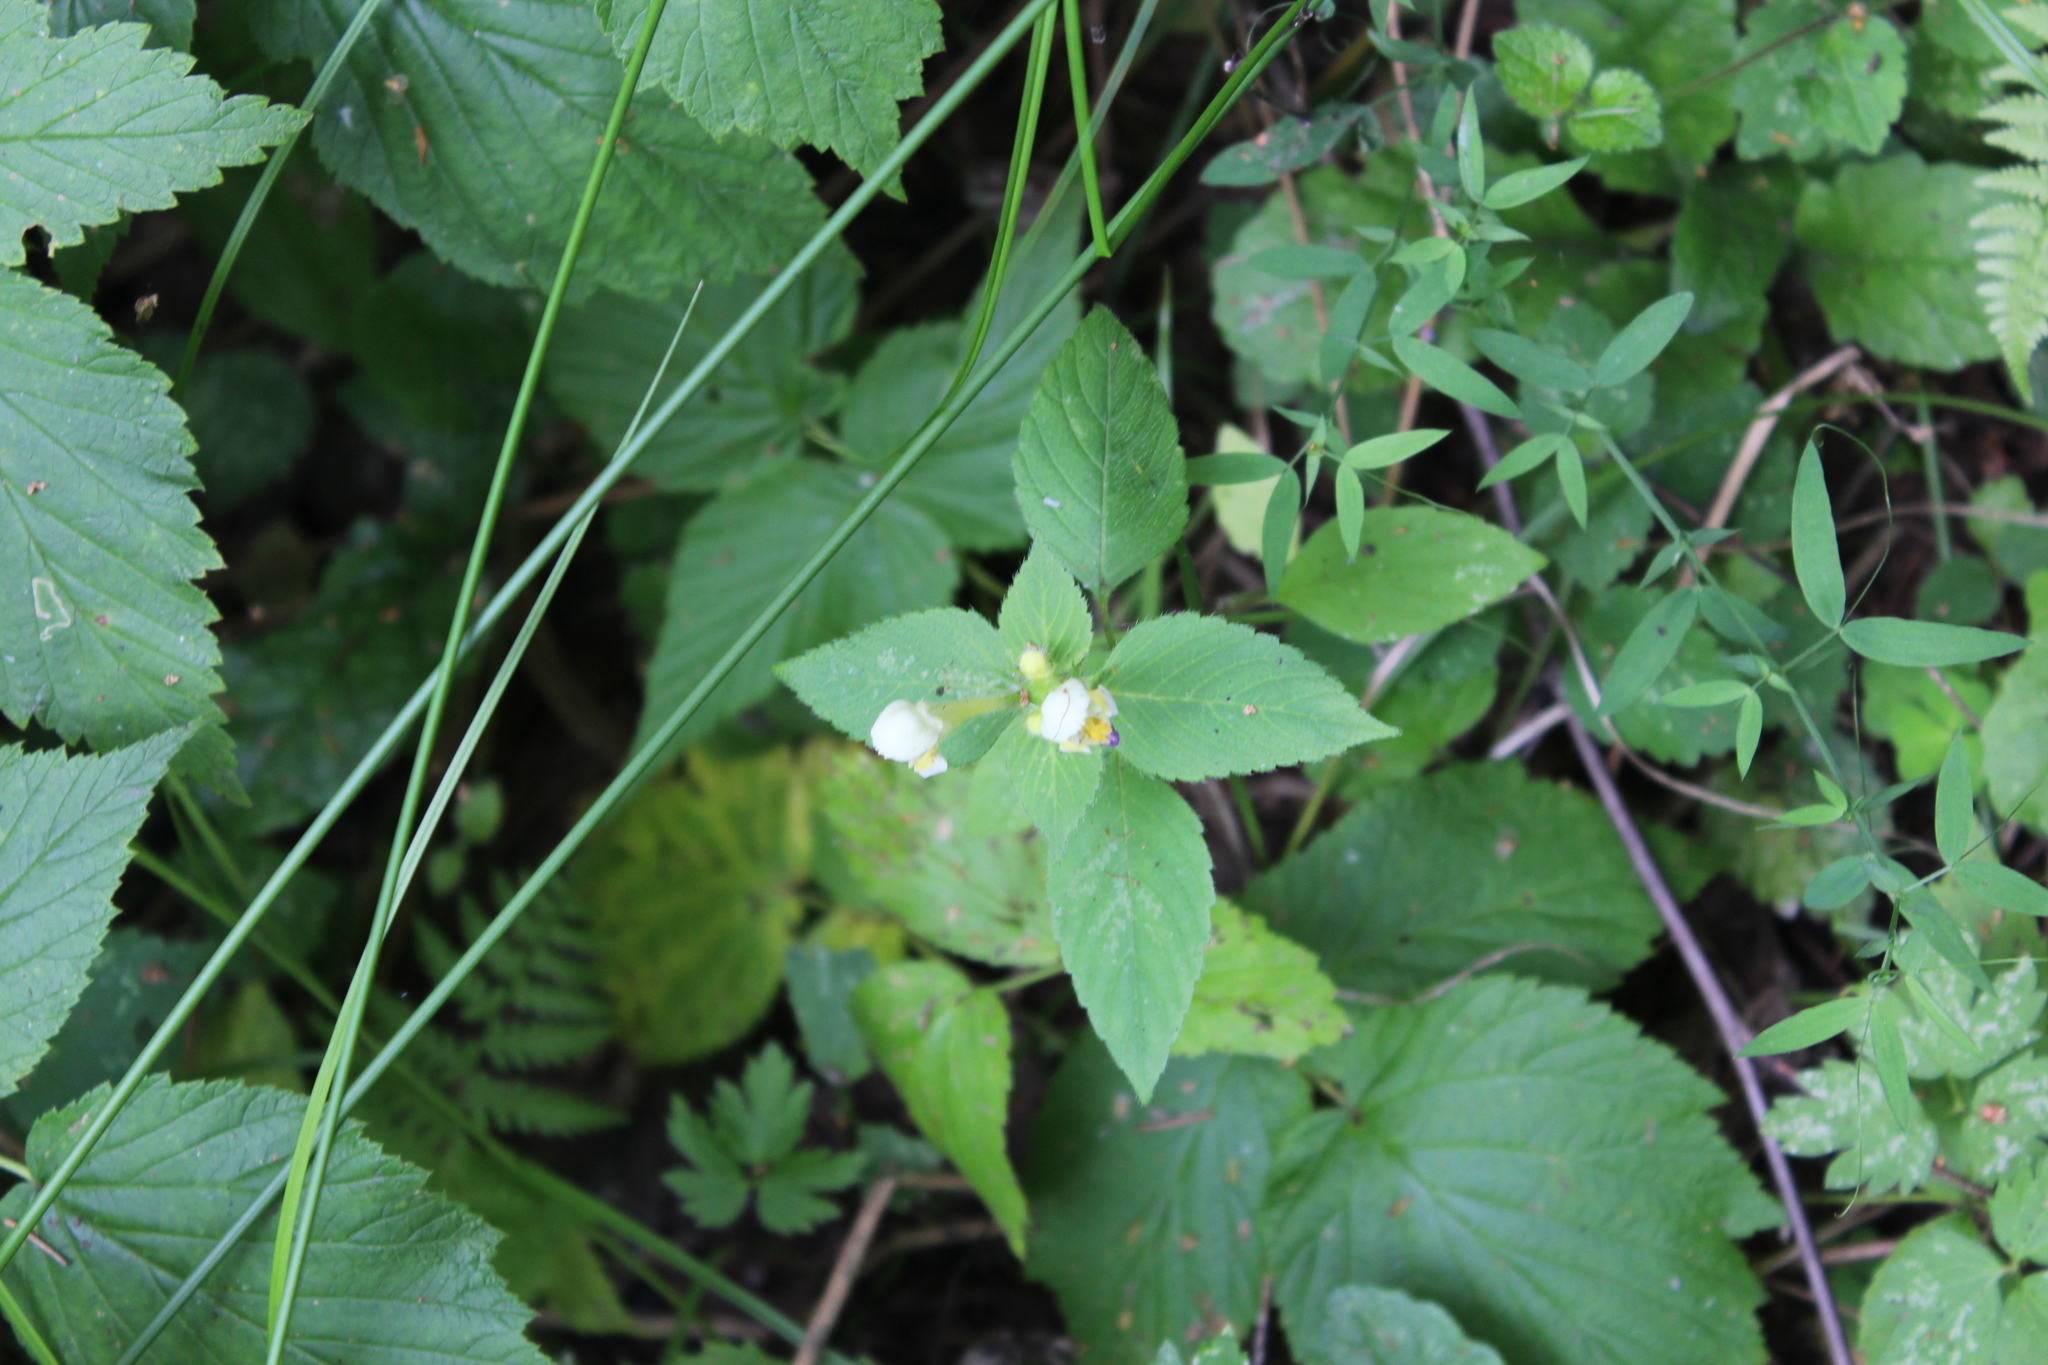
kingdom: Plantae
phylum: Tracheophyta
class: Magnoliopsida
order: Lamiales
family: Lamiaceae
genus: Galeopsis
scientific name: Galeopsis speciosa
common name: Large-flowered hemp-nettle
